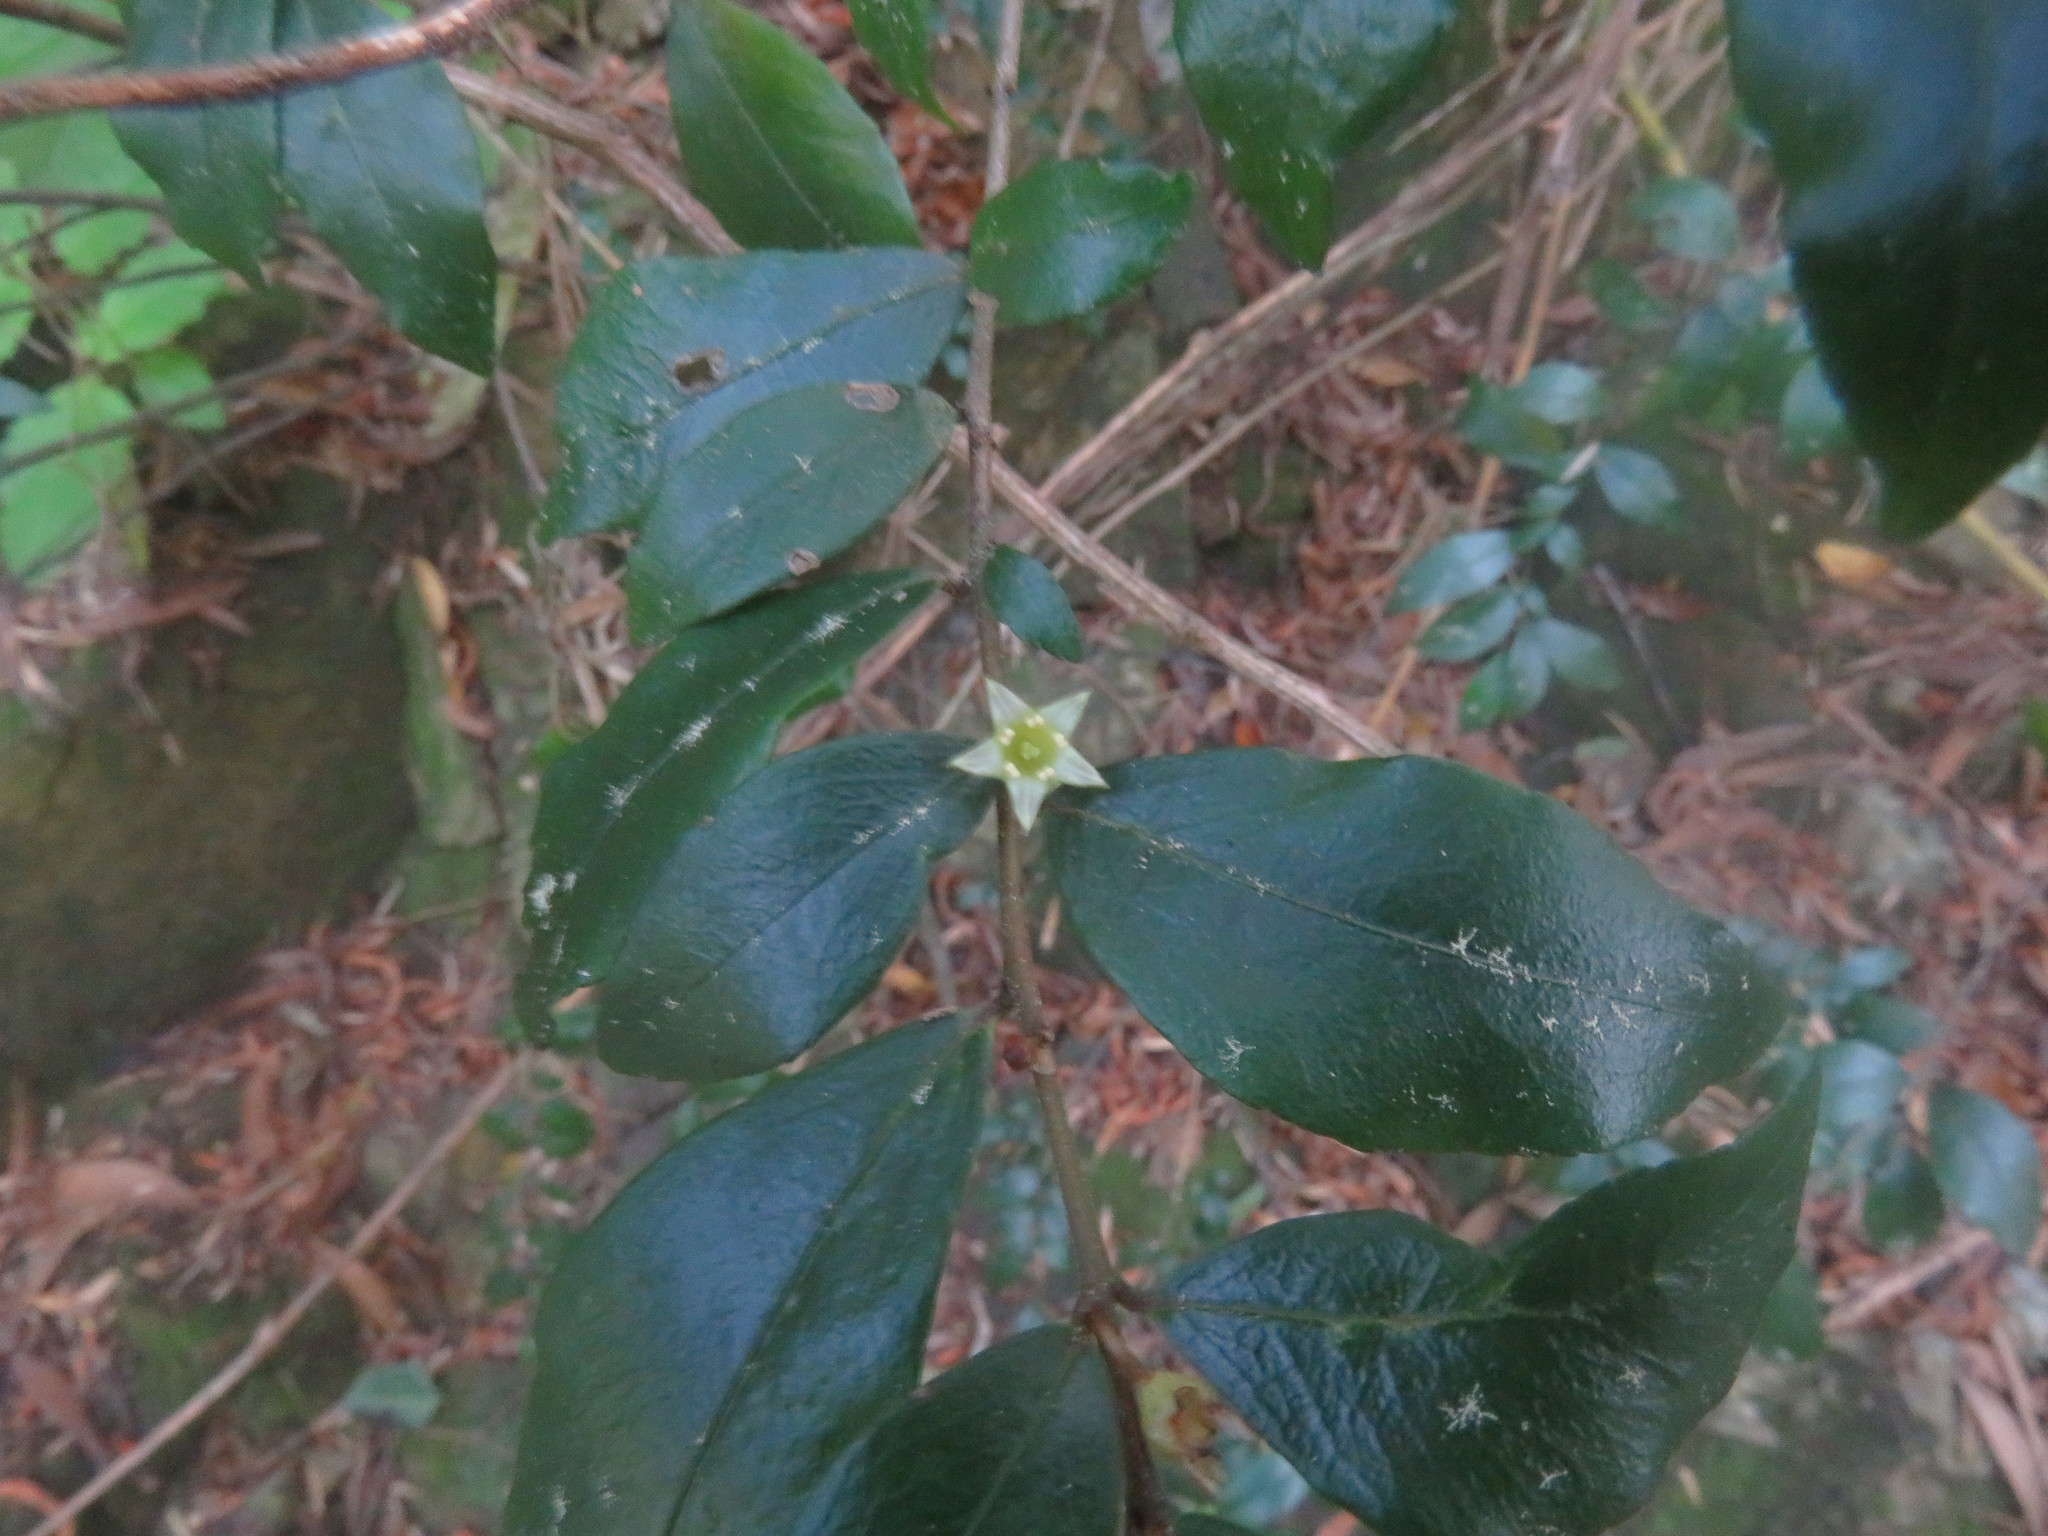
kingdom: Plantae
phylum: Tracheophyta
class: Magnoliopsida
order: Rosales
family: Rhamnaceae
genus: Condalia
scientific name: Condalia maytenoides
